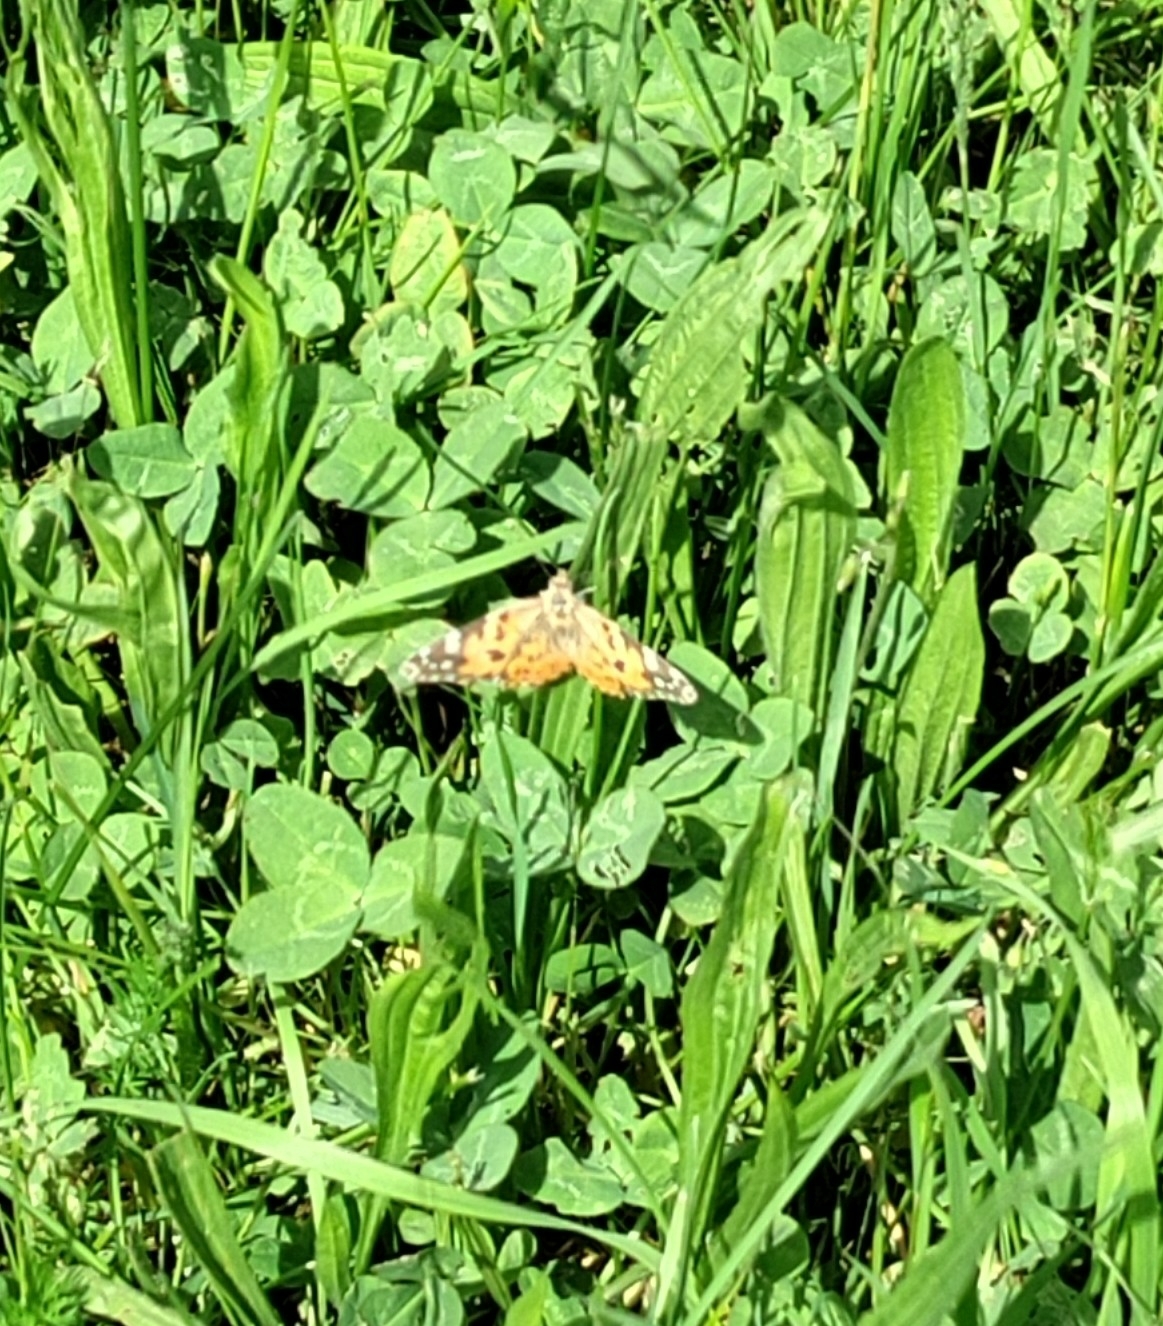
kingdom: Animalia
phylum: Arthropoda
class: Insecta
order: Lepidoptera
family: Nymphalidae
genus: Vanessa
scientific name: Vanessa cardui
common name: Painted lady
